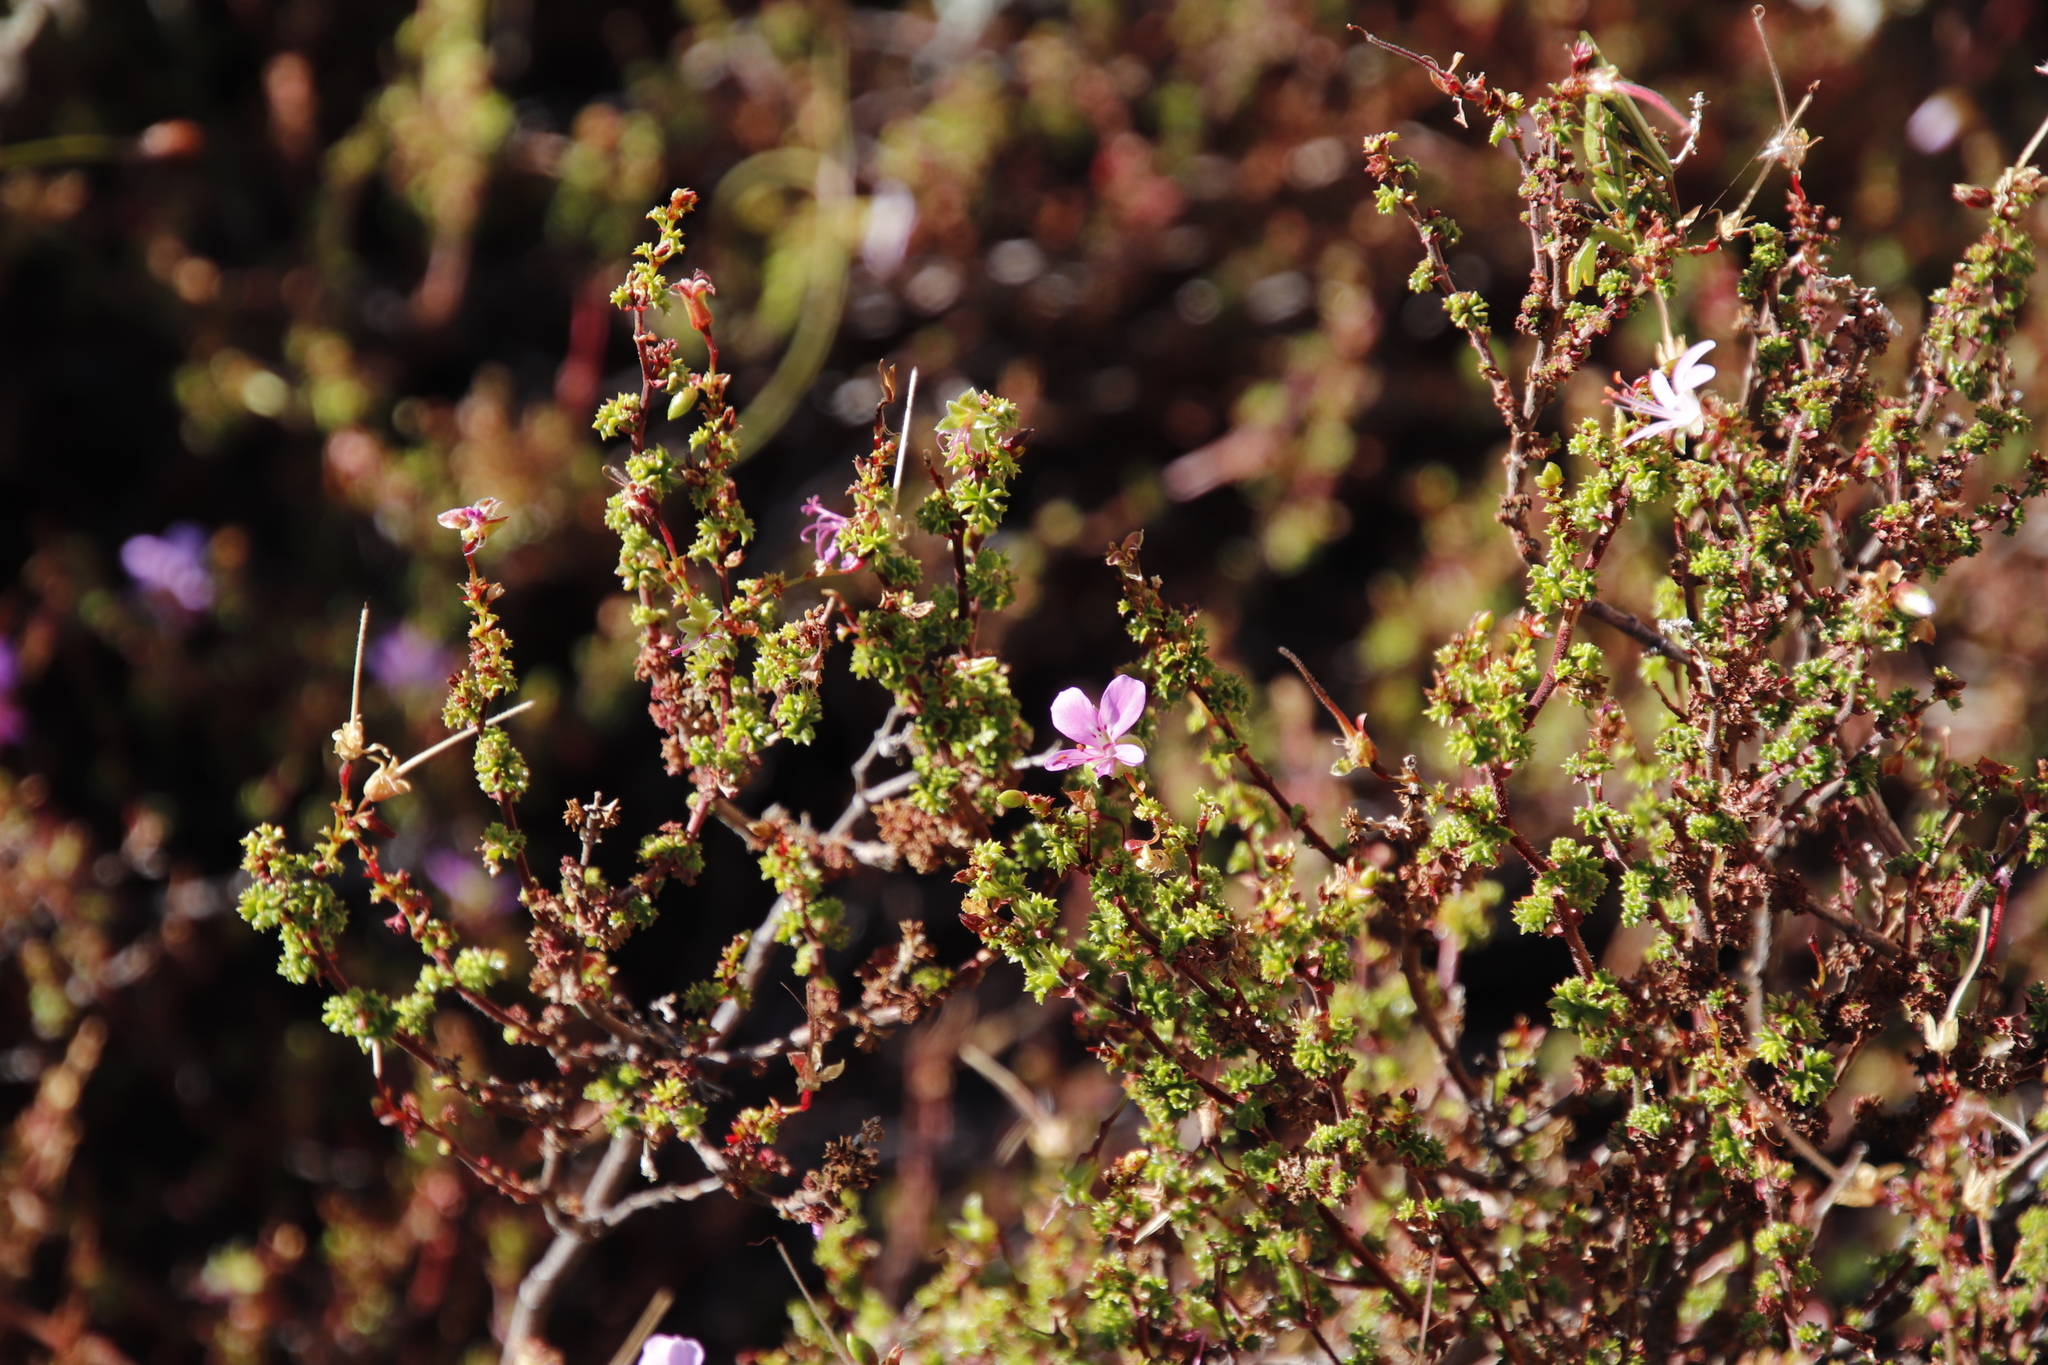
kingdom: Plantae
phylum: Tracheophyta
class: Magnoliopsida
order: Geraniales
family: Geraniaceae
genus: Pelargonium
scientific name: Pelargonium englerianum
